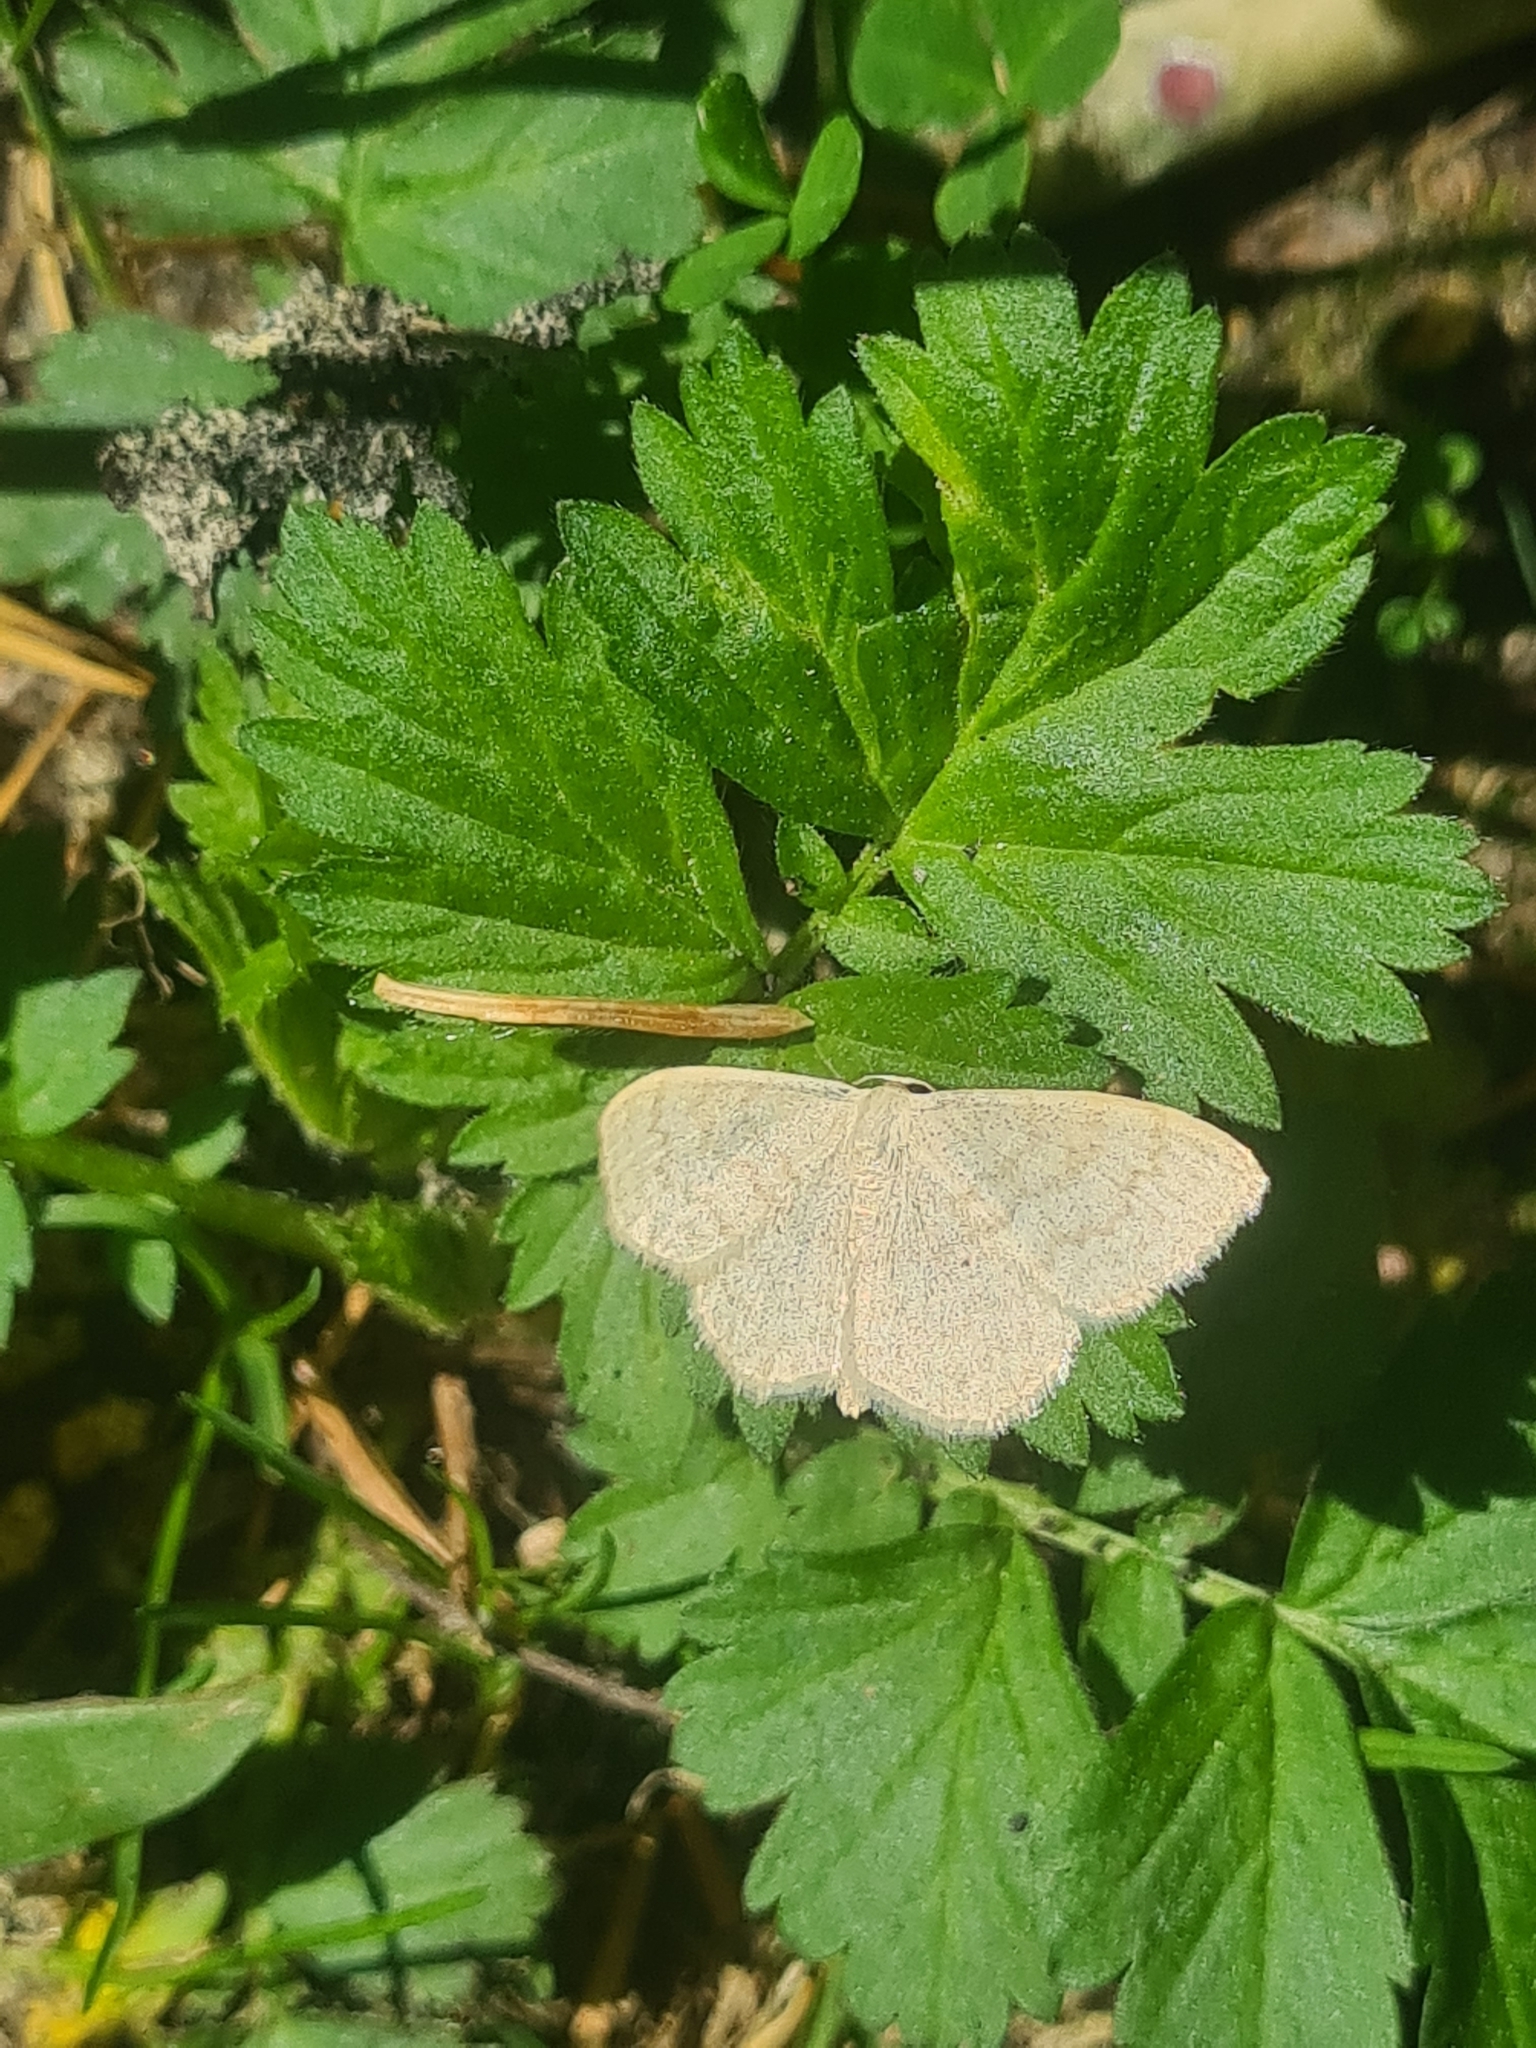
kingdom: Animalia
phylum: Arthropoda
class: Insecta
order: Lepidoptera
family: Geometridae
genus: Scopula
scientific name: Scopula floslactata
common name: Cream wave
